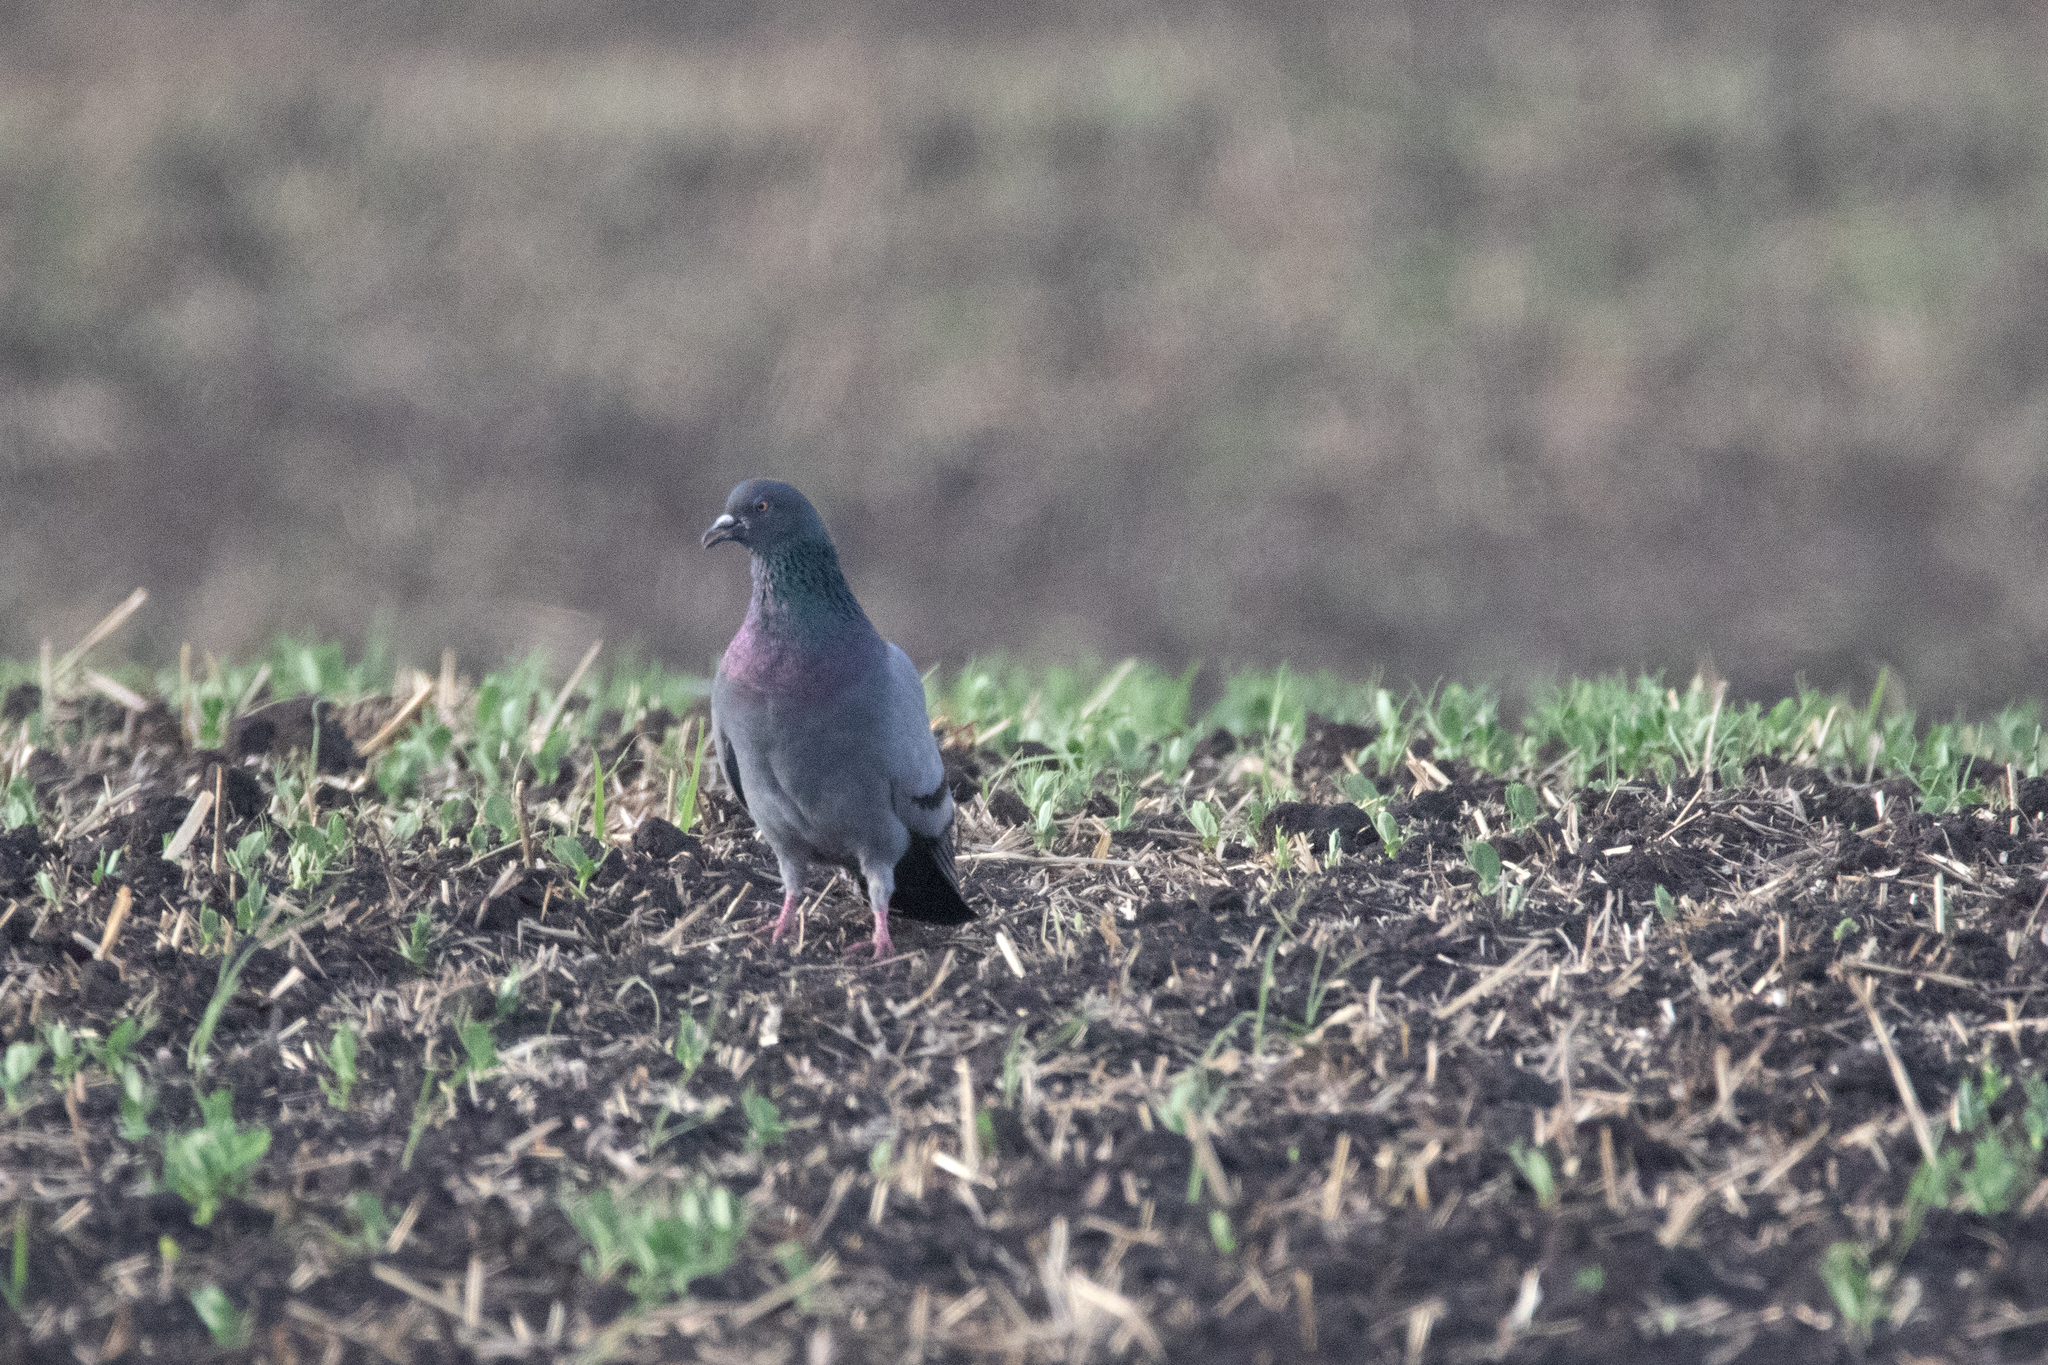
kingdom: Animalia
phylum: Chordata
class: Aves
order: Columbiformes
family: Columbidae
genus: Columba
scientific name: Columba livia
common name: Rock pigeon
